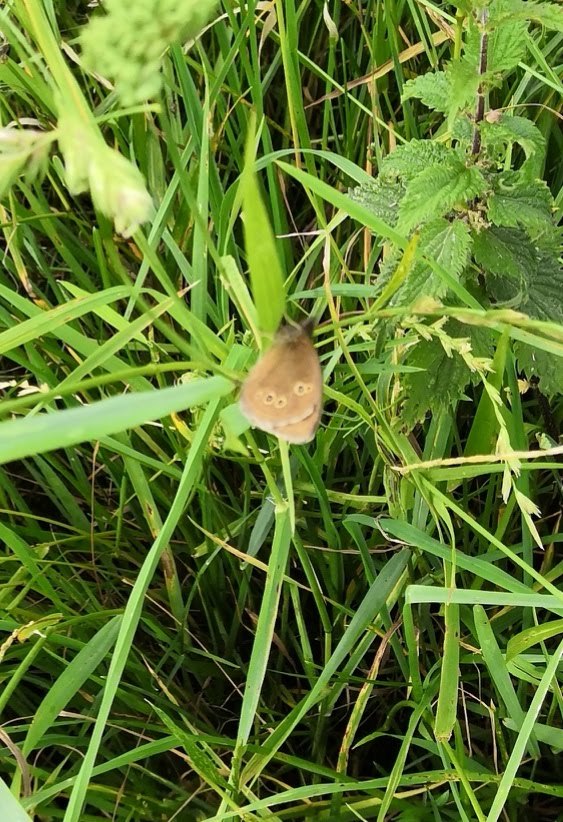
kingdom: Animalia
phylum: Arthropoda
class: Insecta
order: Lepidoptera
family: Nymphalidae
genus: Aphantopus
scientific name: Aphantopus hyperantus
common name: Ringlet
